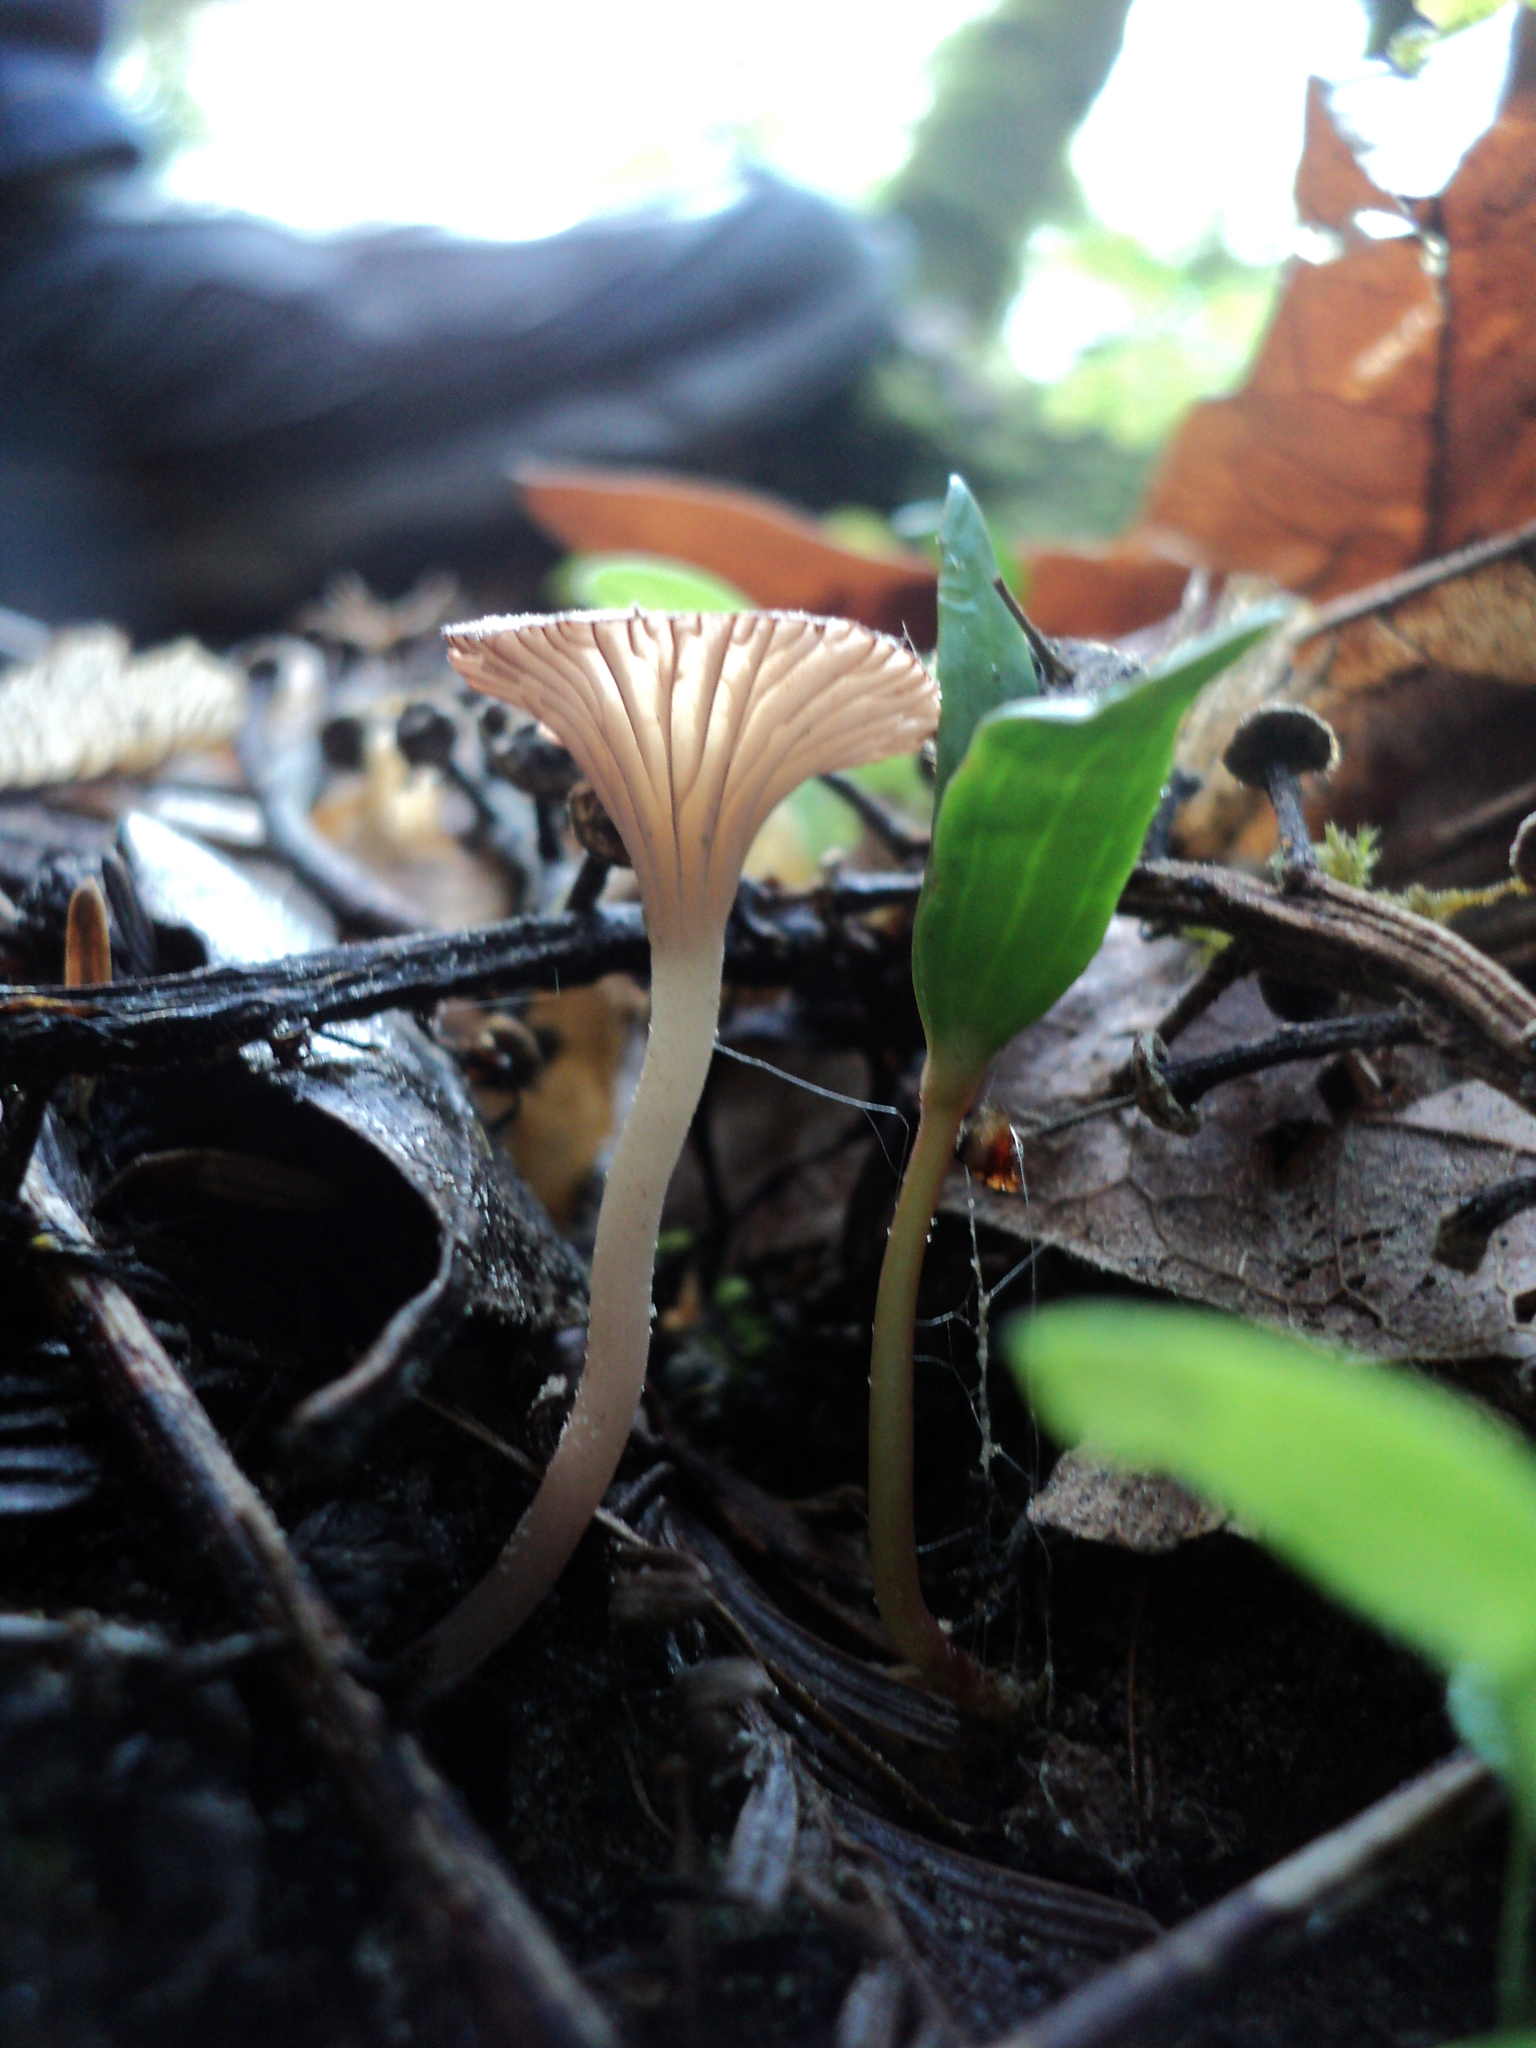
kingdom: Fungi
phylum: Basidiomycota
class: Agaricomycetes
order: Hymenochaetales
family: Rickenellaceae
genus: Contumyces
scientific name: Contumyces rosellus
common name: Rosy navel
